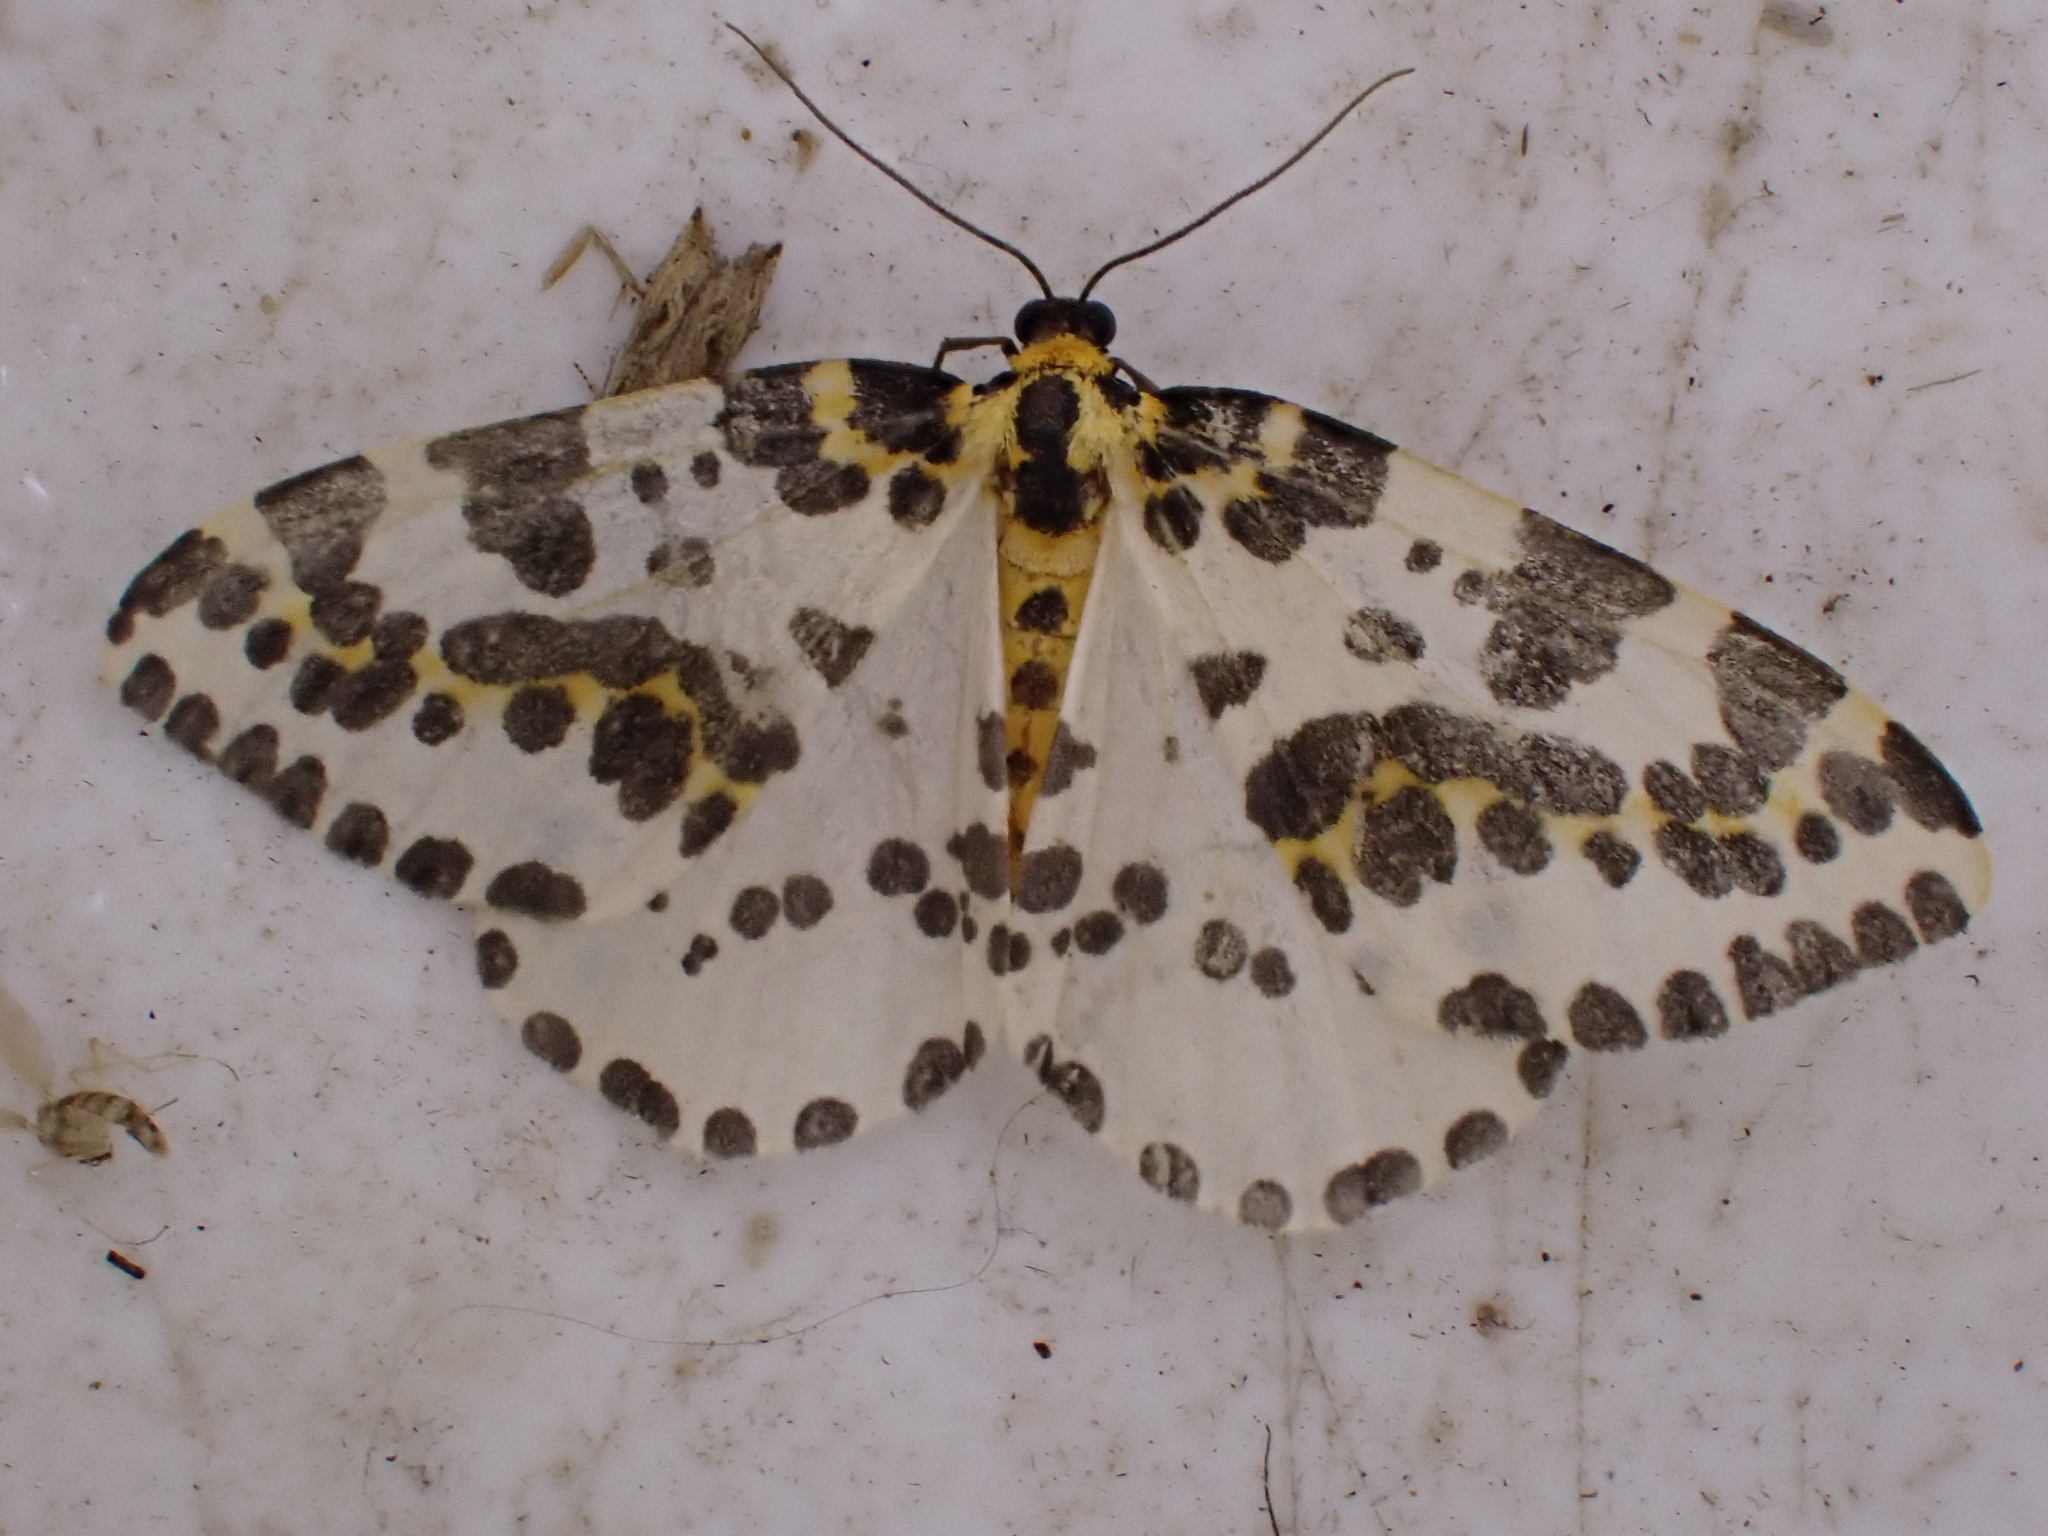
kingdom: Animalia
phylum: Arthropoda
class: Insecta
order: Lepidoptera
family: Geometridae
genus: Abraxas
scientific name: Abraxas grossulariata
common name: Magpie
